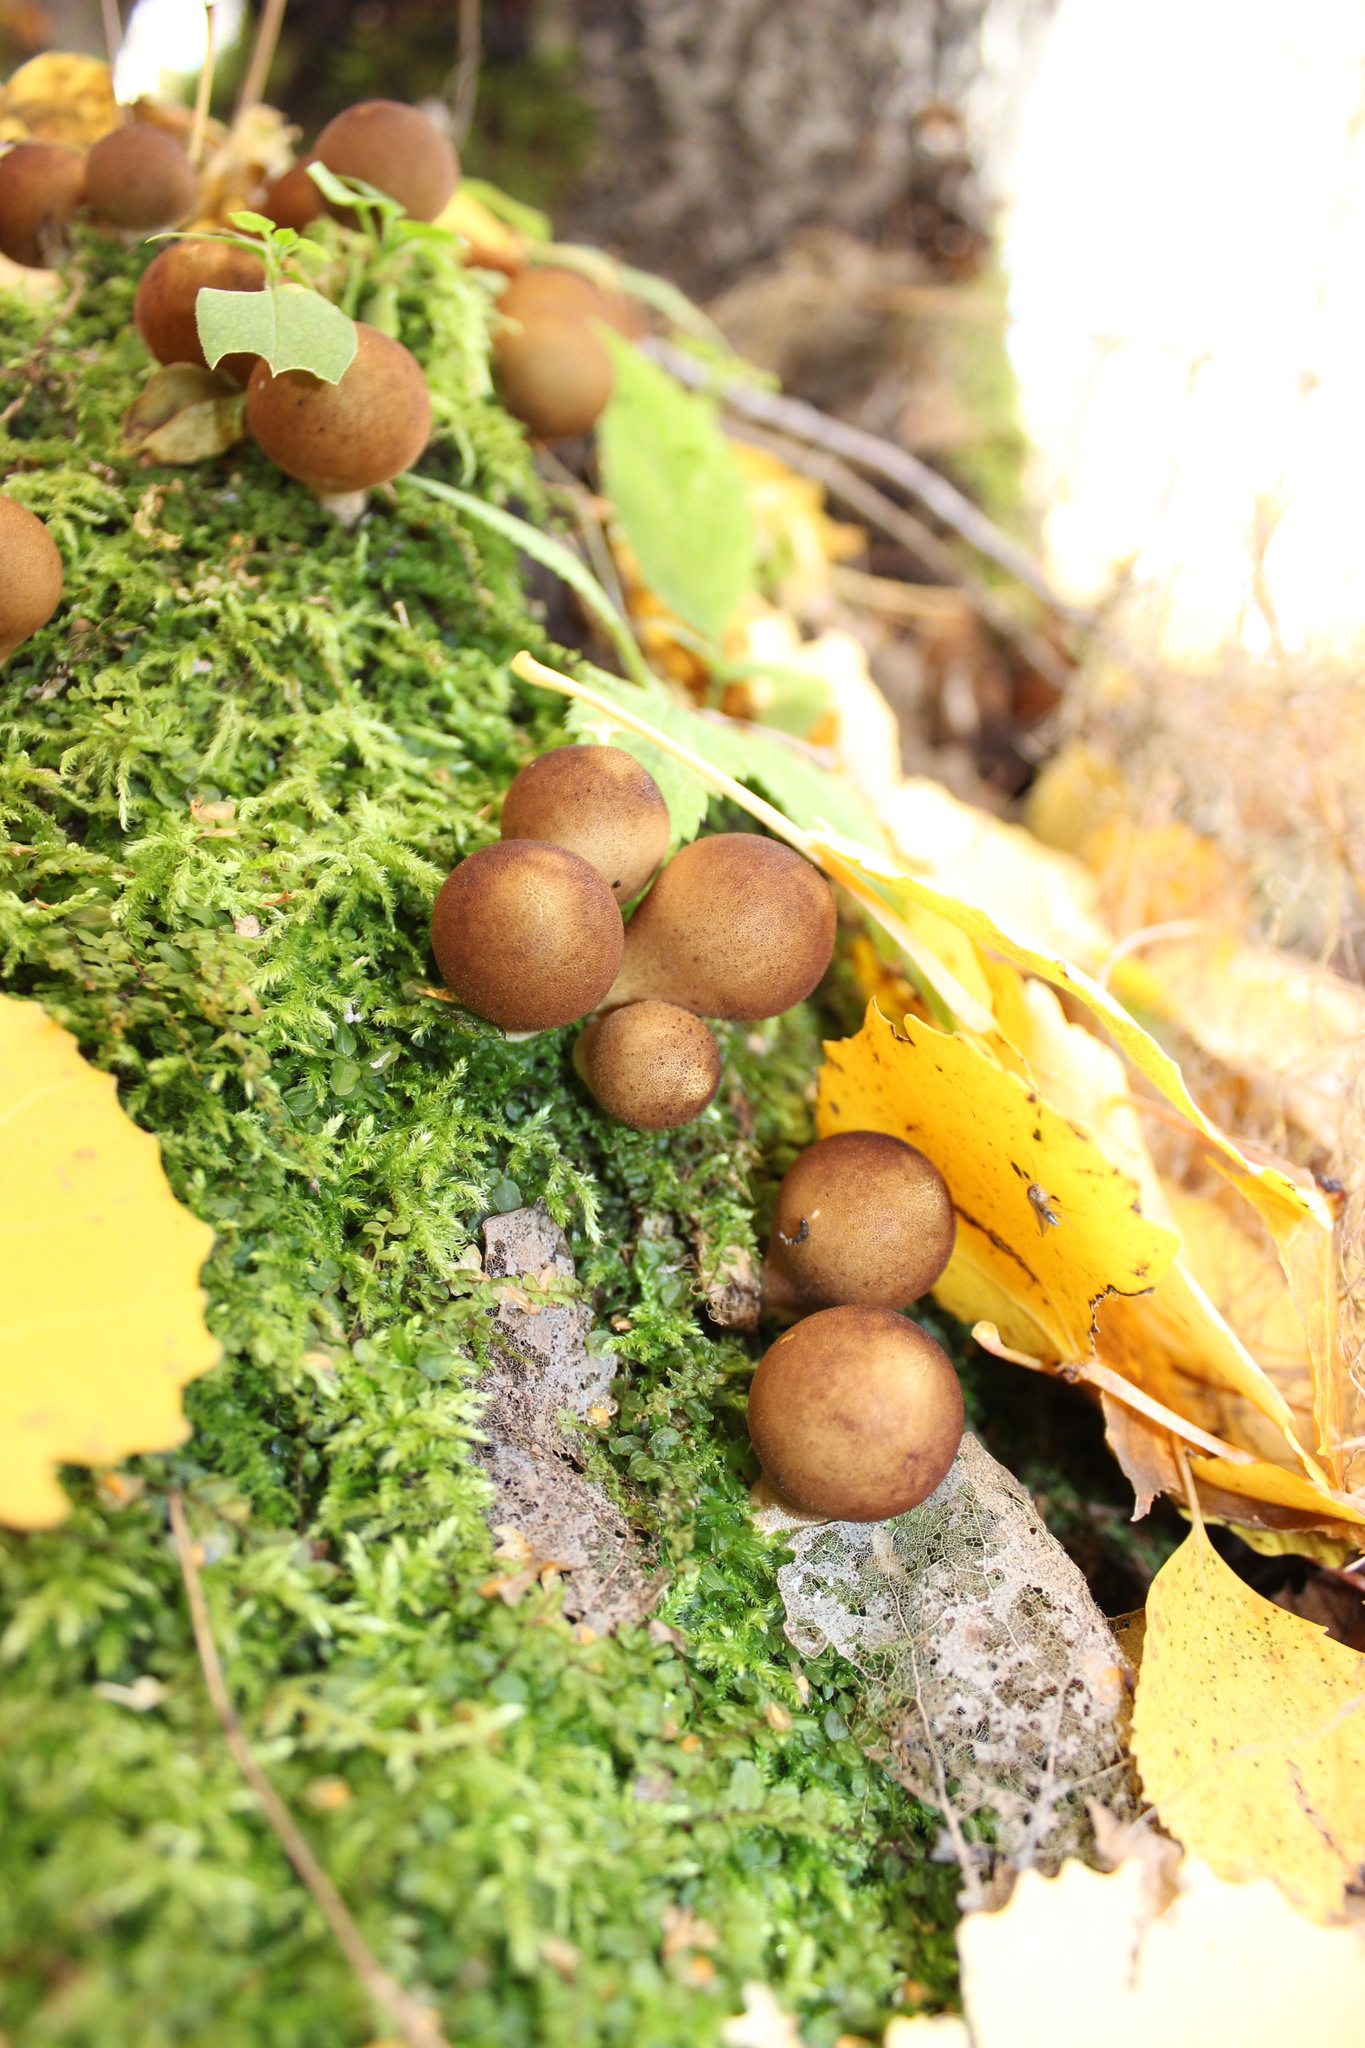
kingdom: Fungi
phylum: Basidiomycota
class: Agaricomycetes
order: Agaricales
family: Lycoperdaceae
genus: Apioperdon
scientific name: Apioperdon pyriforme
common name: Pear-shaped puffball
